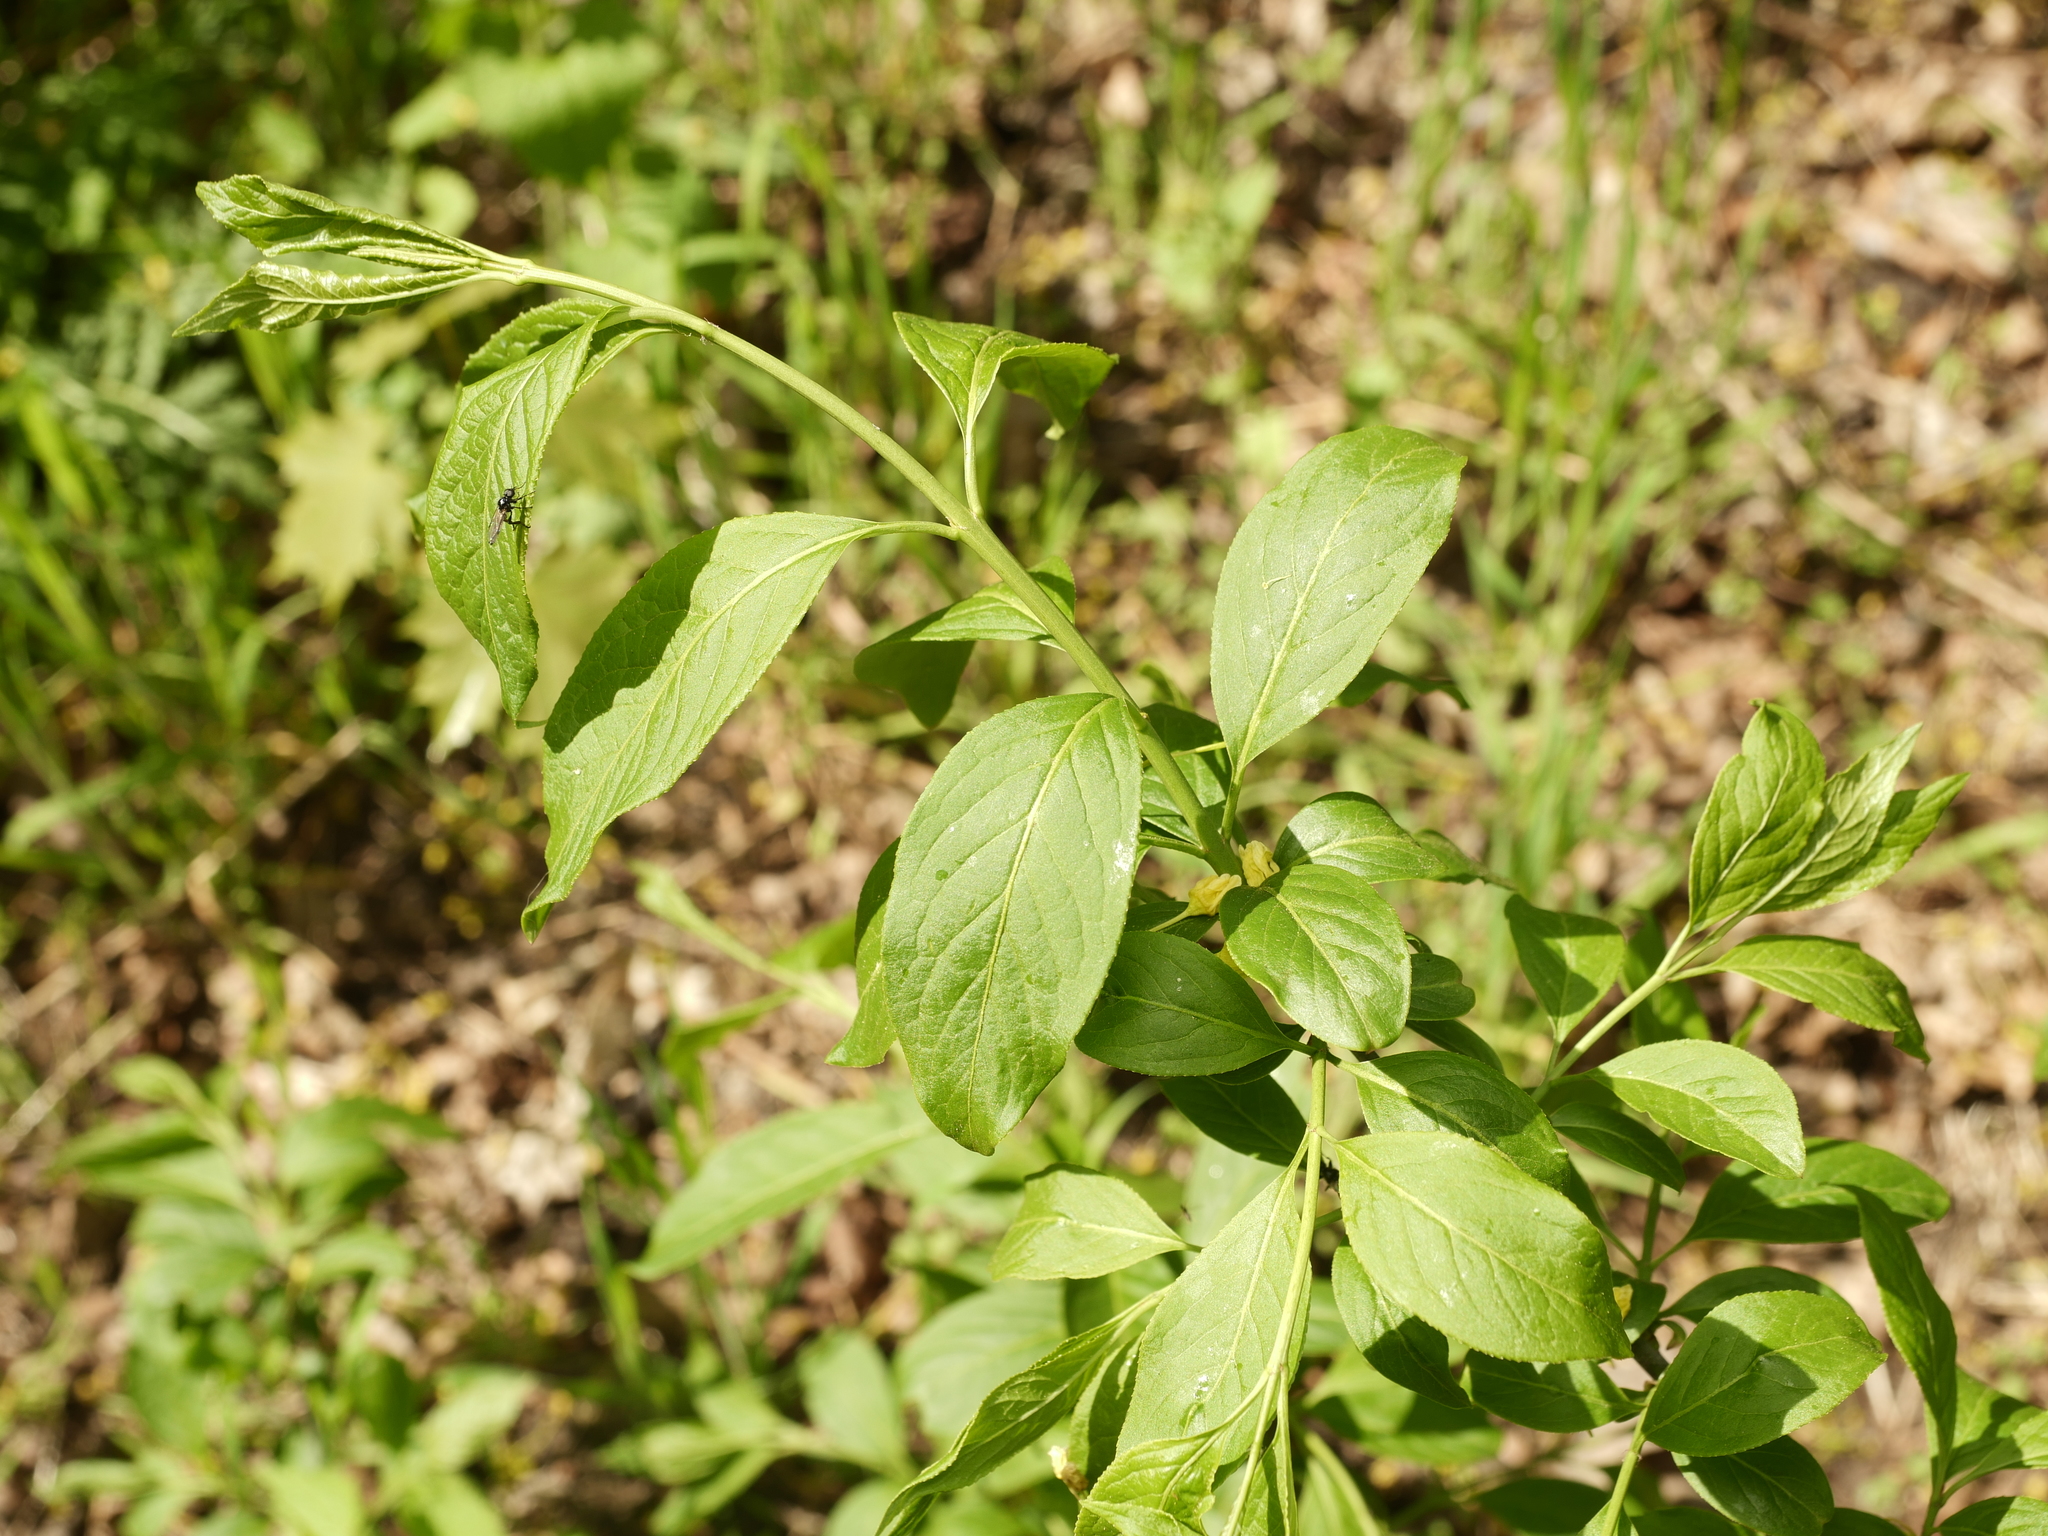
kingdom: Plantae
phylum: Tracheophyta
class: Magnoliopsida
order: Celastrales
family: Celastraceae
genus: Euonymus
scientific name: Euonymus europaeus
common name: Spindle
